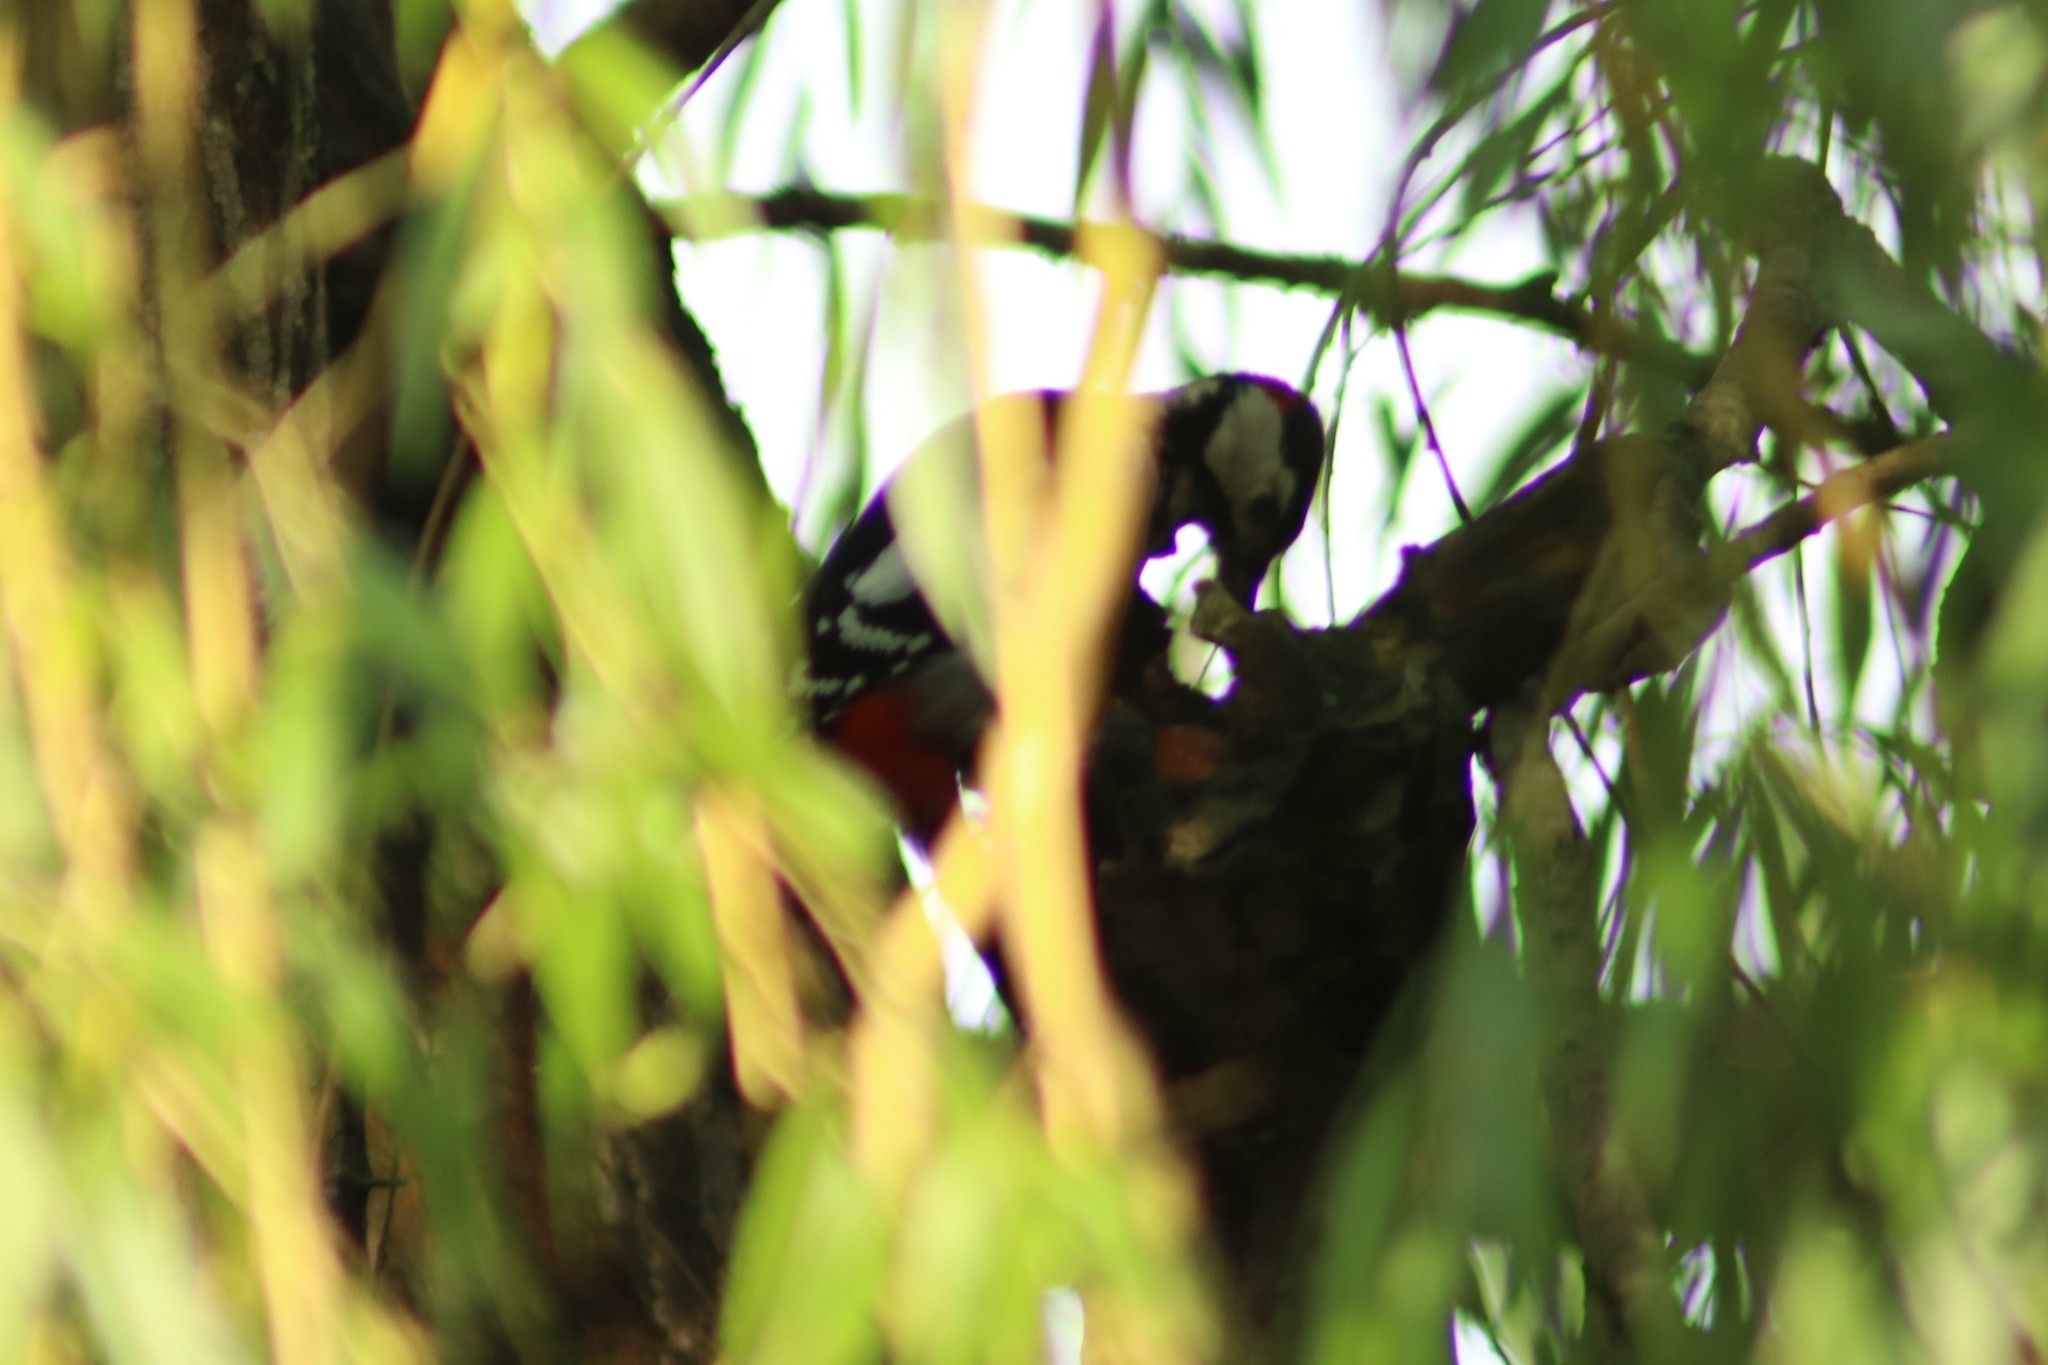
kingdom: Animalia
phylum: Chordata
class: Aves
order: Piciformes
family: Picidae
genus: Dendrocopos
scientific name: Dendrocopos major
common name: Great spotted woodpecker
